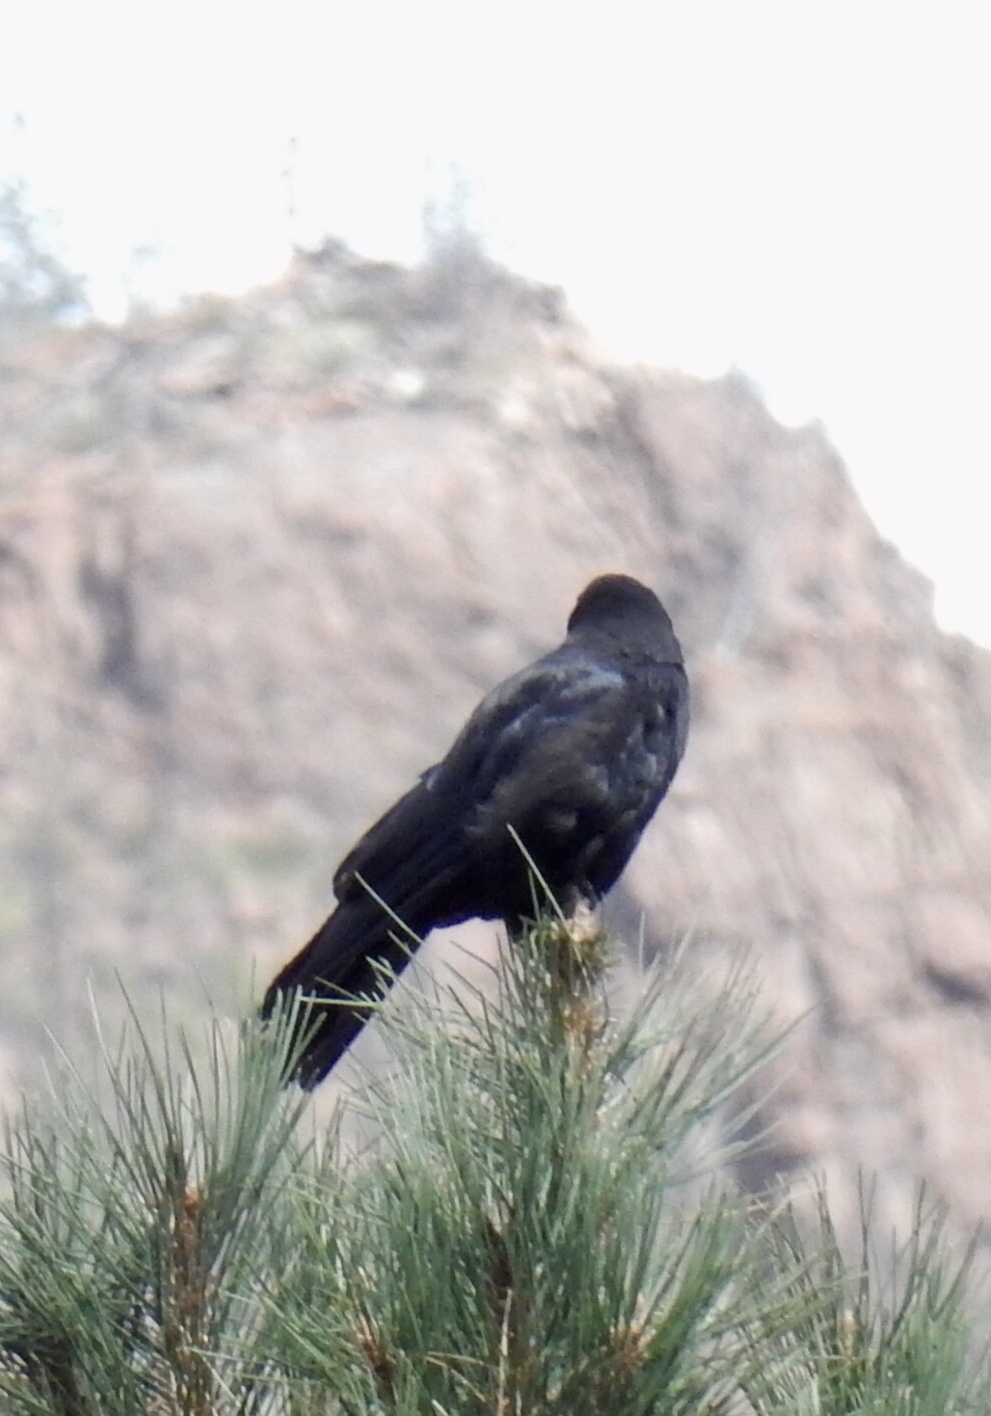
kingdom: Animalia
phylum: Chordata
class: Aves
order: Passeriformes
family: Corvidae
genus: Corvus
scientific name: Corvus corax
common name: Common raven
